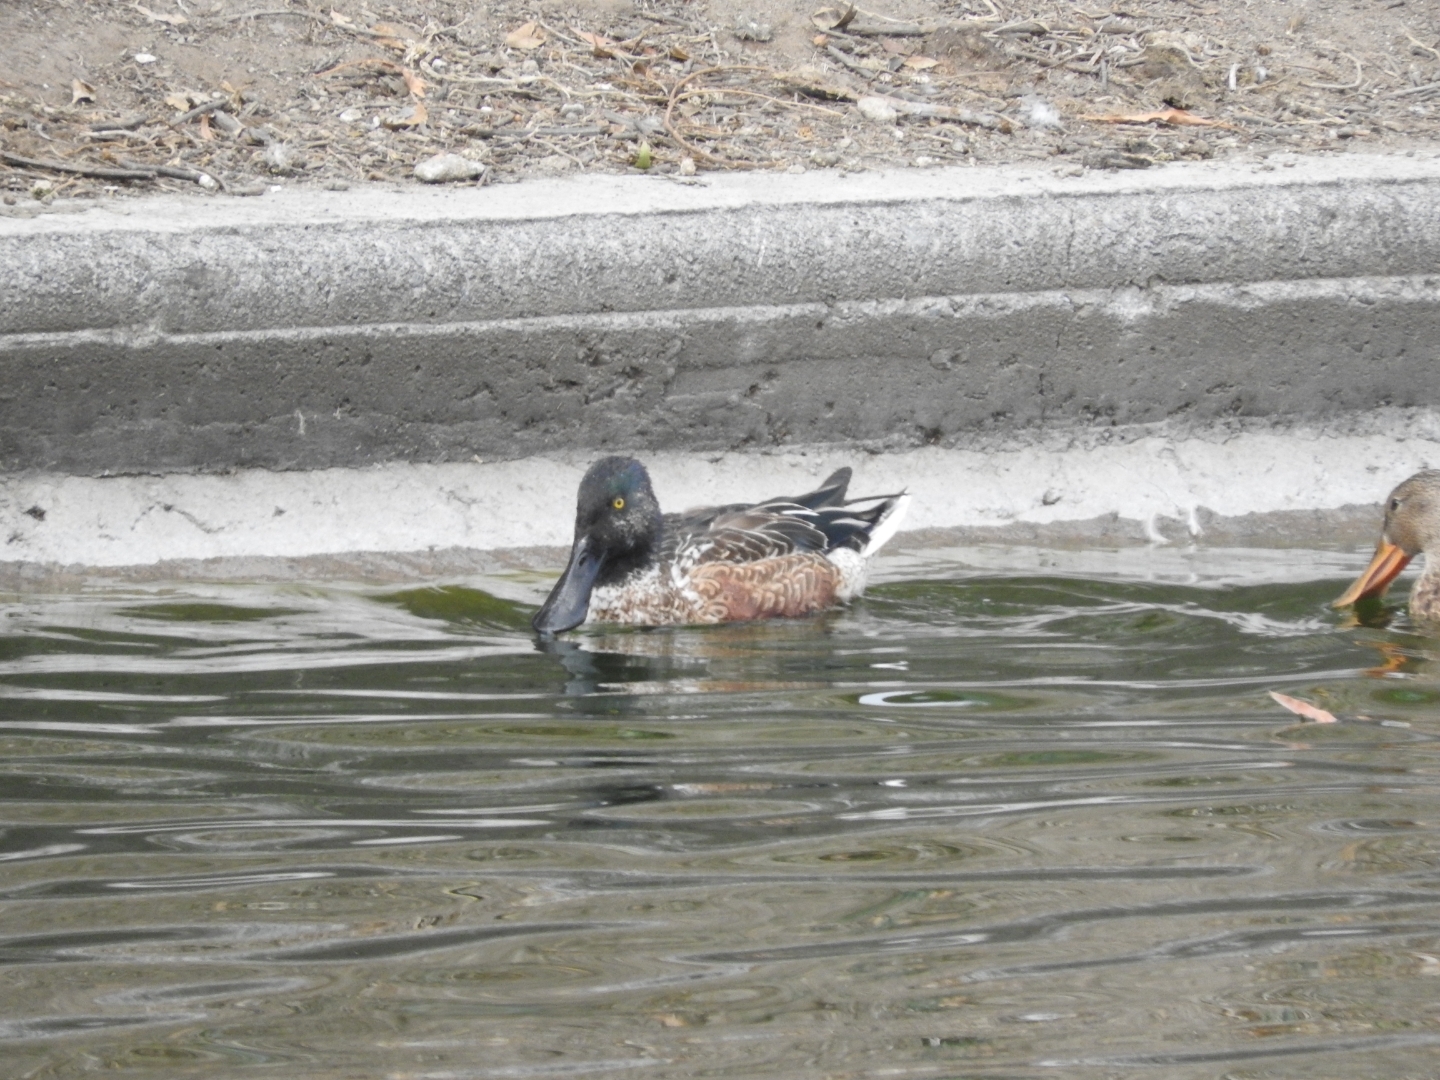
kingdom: Animalia
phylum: Chordata
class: Aves
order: Anseriformes
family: Anatidae
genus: Spatula
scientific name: Spatula clypeata
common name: Northern shoveler
